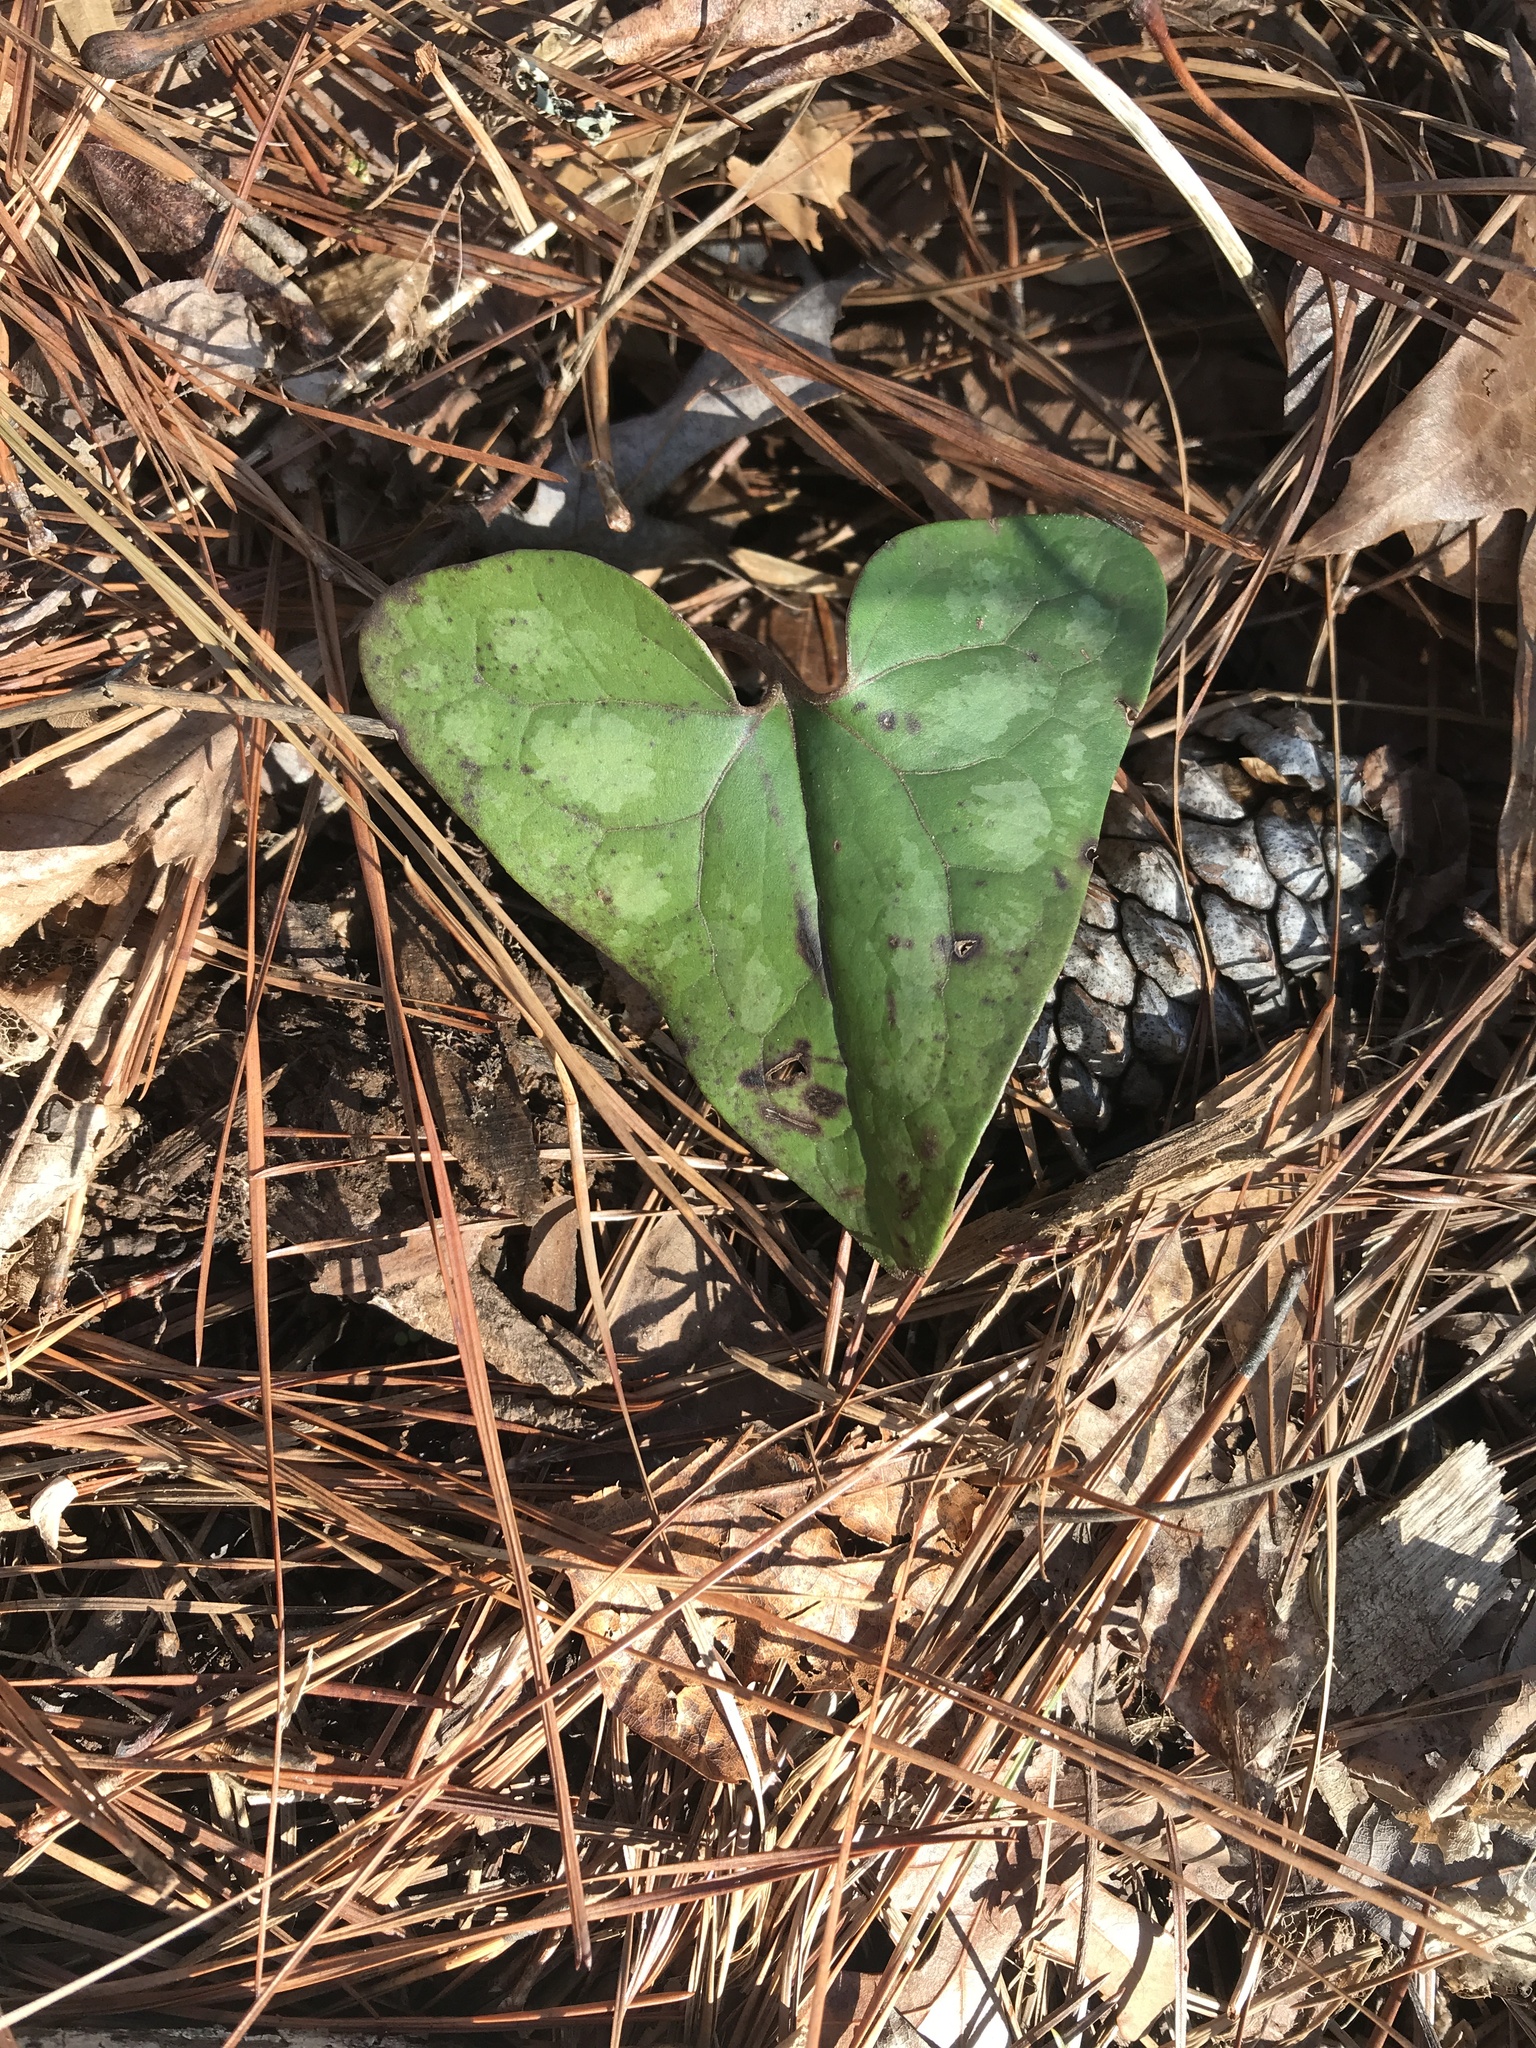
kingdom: Plantae
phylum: Tracheophyta
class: Magnoliopsida
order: Piperales
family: Aristolochiaceae
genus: Hexastylis
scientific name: Hexastylis arifolia
